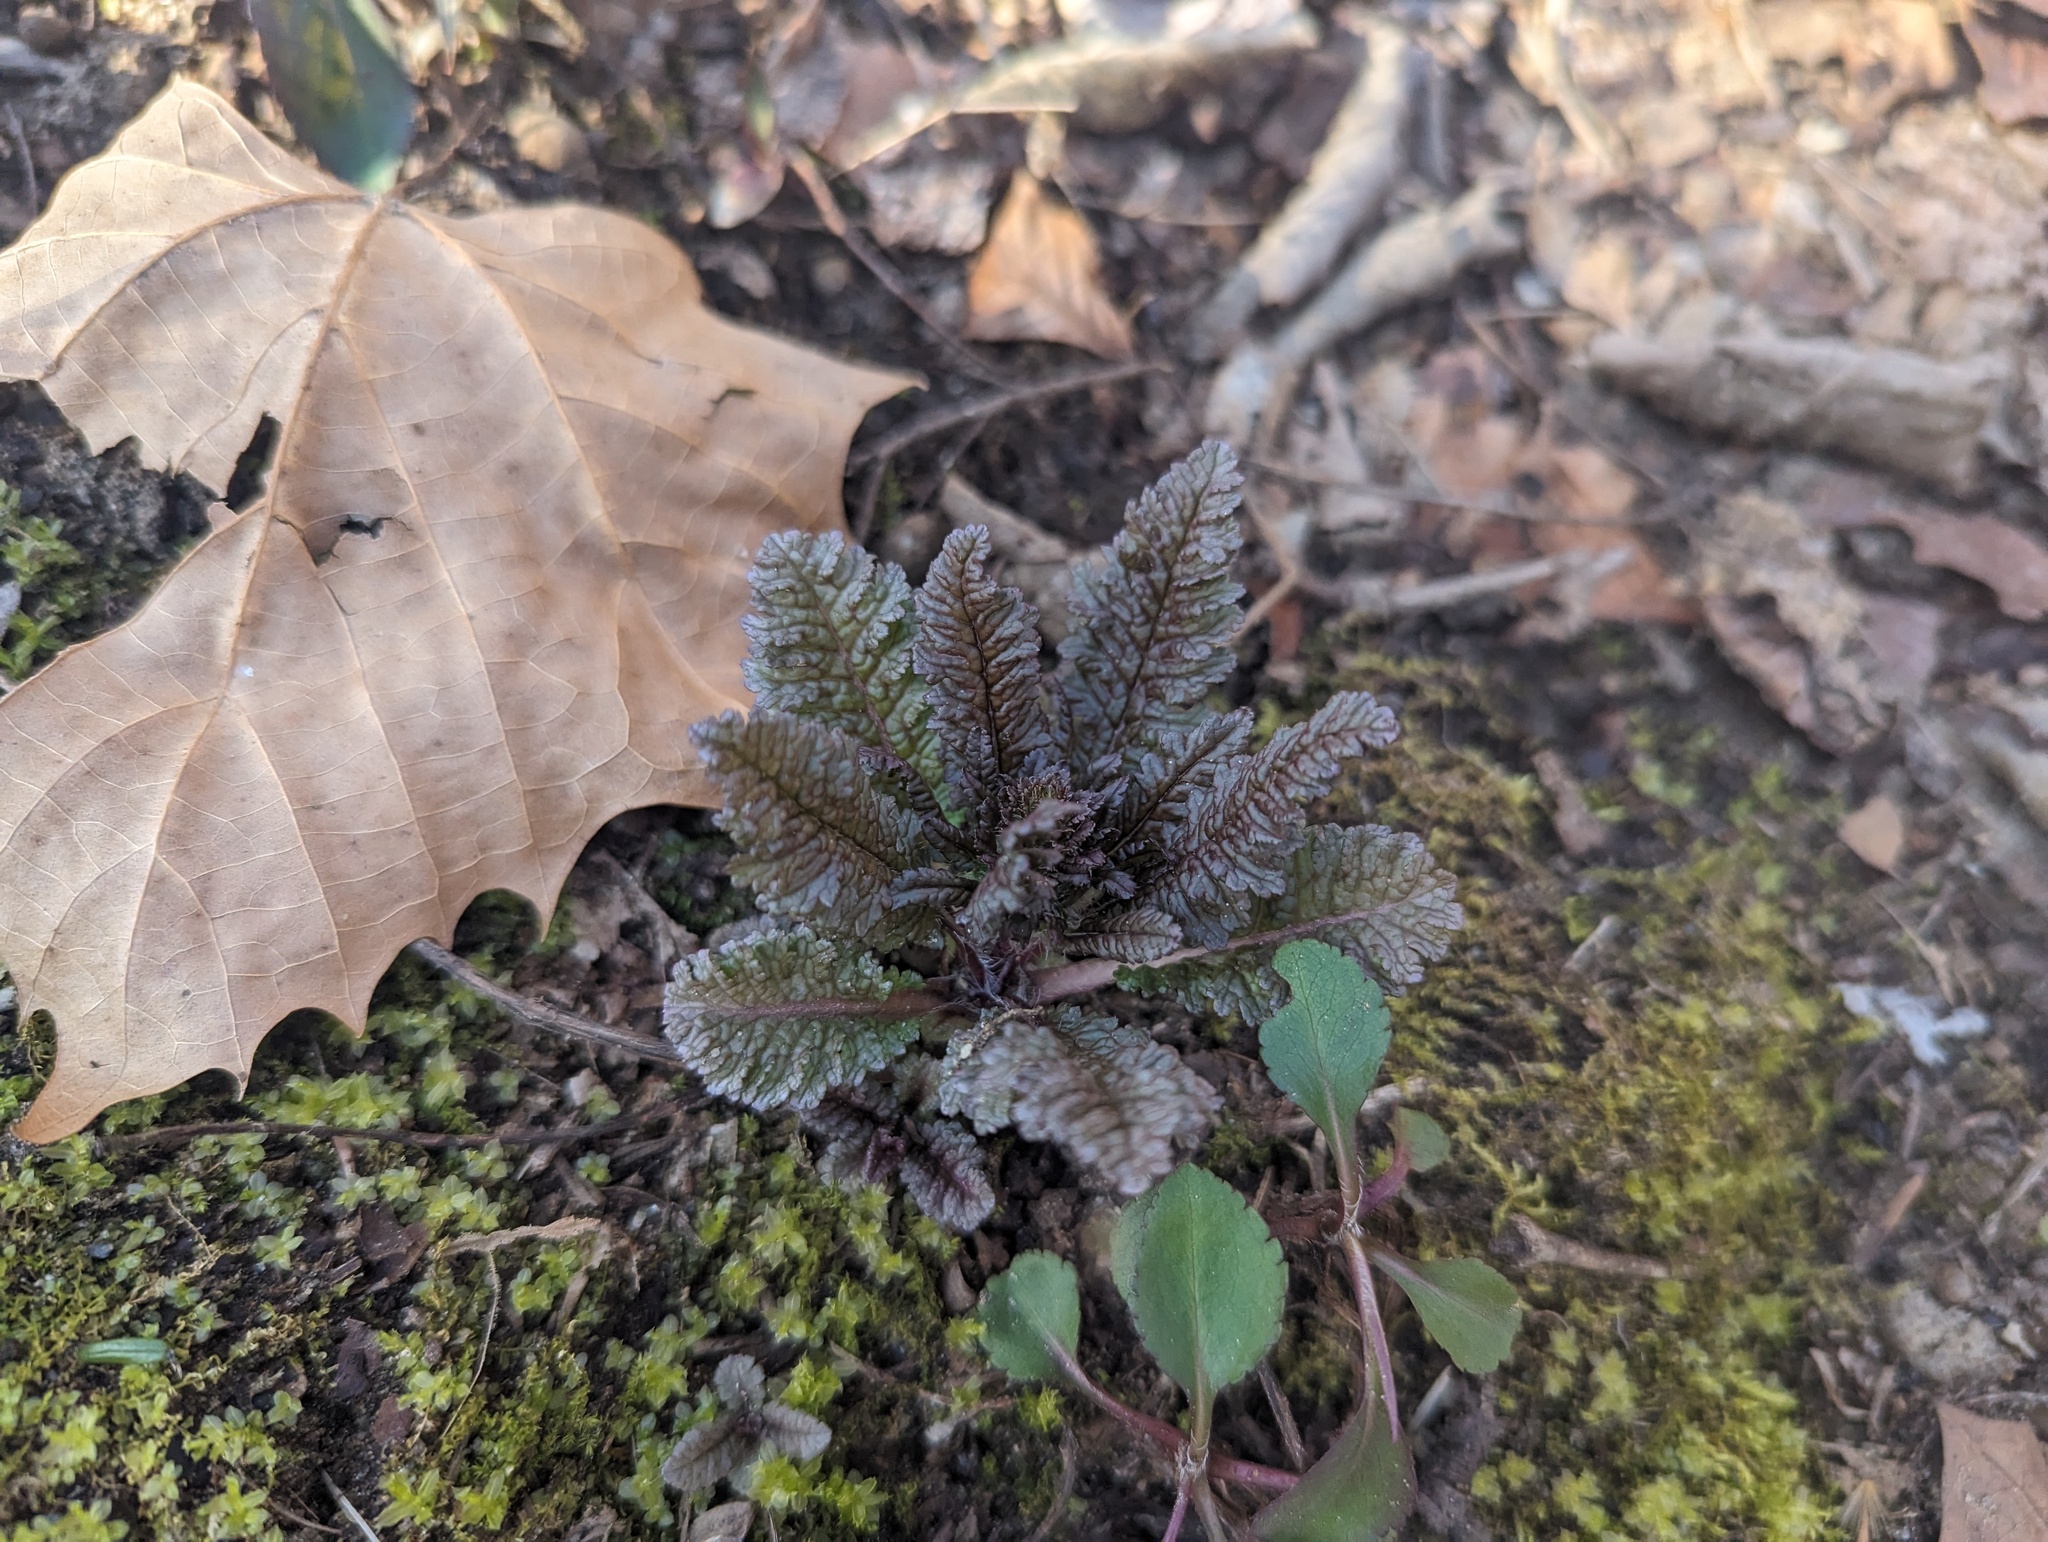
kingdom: Plantae
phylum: Tracheophyta
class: Magnoliopsida
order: Lamiales
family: Orobanchaceae
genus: Pedicularis
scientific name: Pedicularis canadensis
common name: Early lousewort
